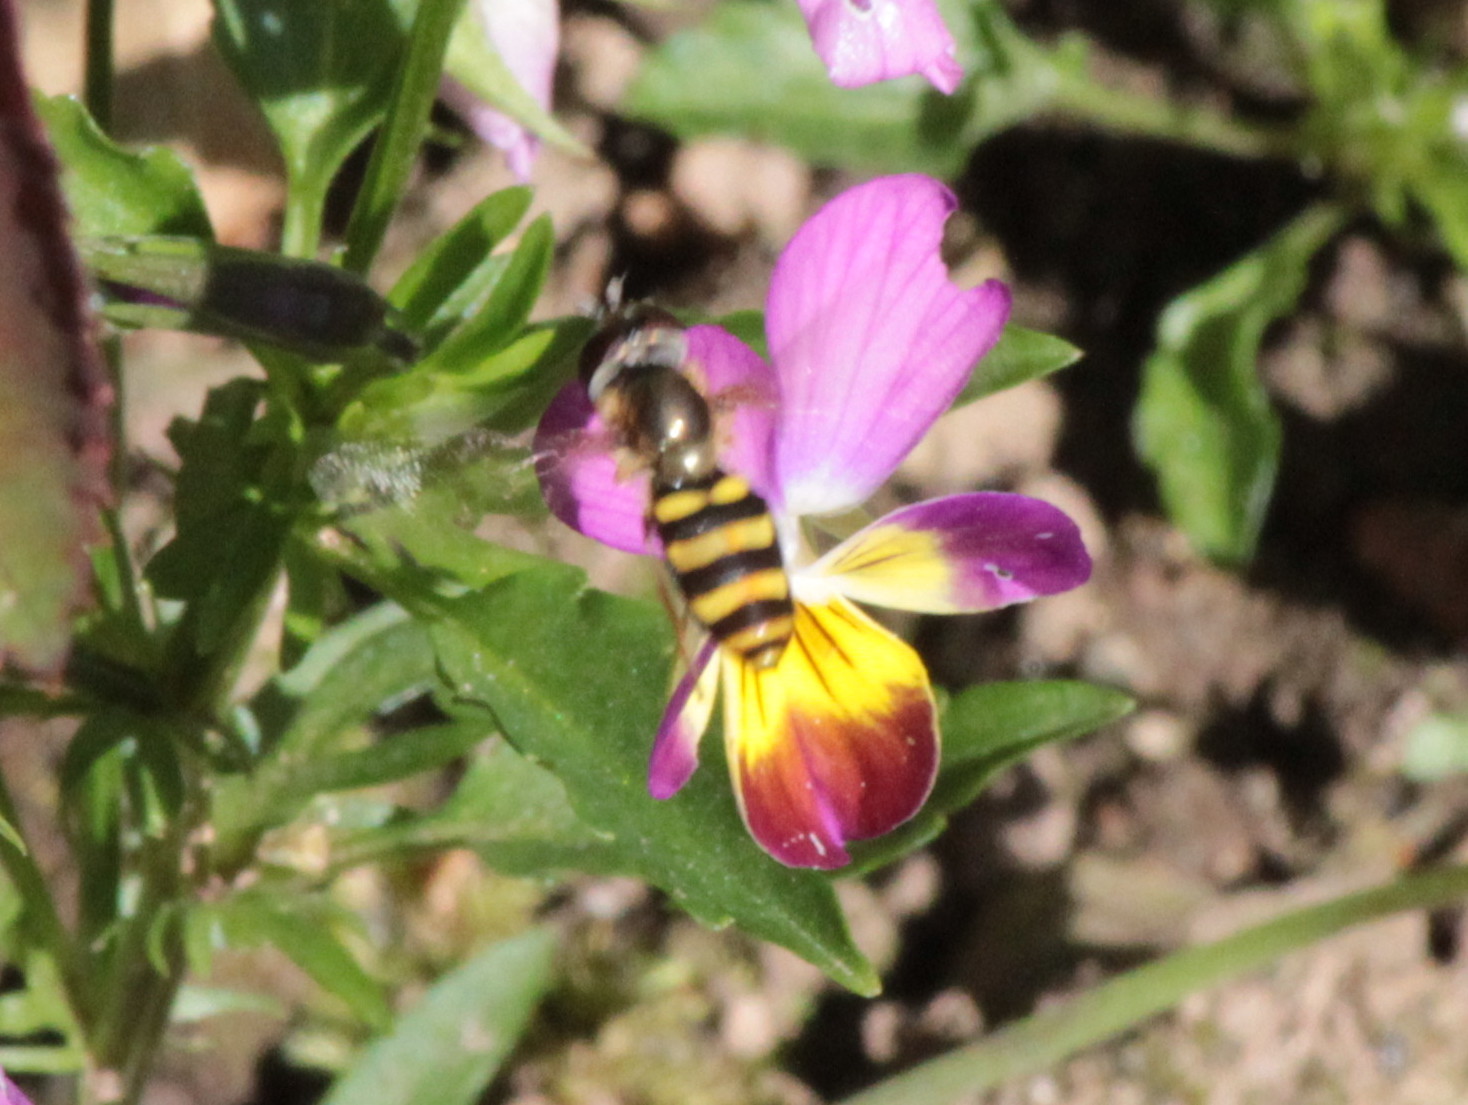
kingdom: Animalia
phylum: Arthropoda
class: Insecta
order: Diptera
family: Syrphidae
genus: Eupeodes
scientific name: Eupeodes
